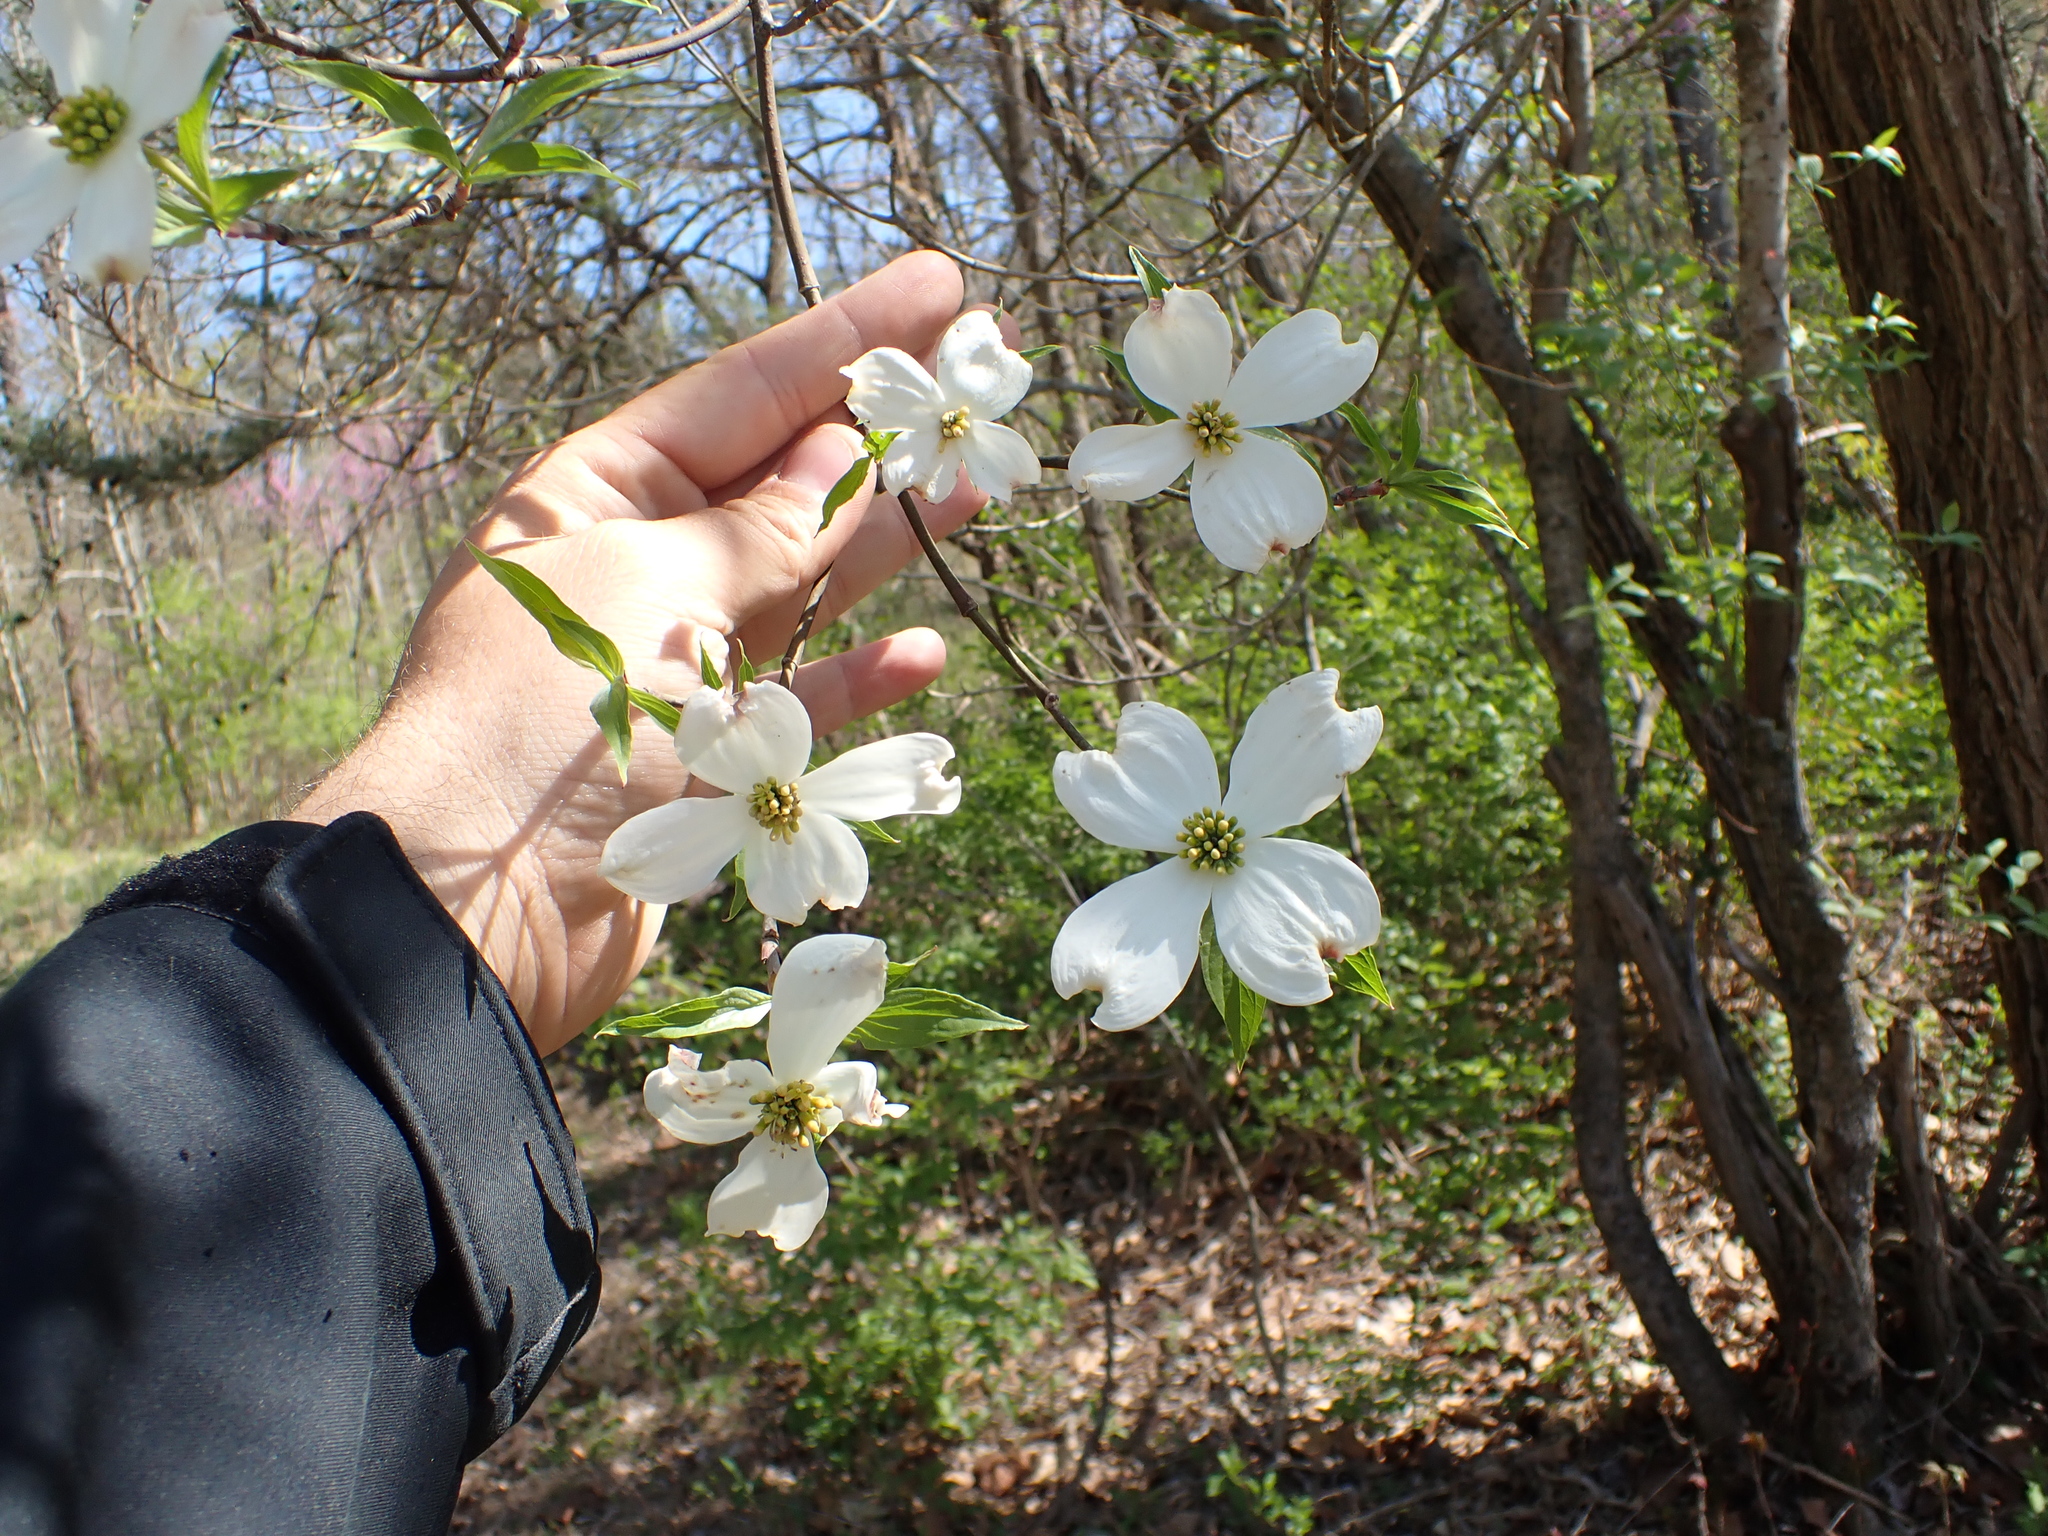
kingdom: Plantae
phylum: Tracheophyta
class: Magnoliopsida
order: Cornales
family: Cornaceae
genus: Cornus
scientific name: Cornus florida
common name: Flowering dogwood
